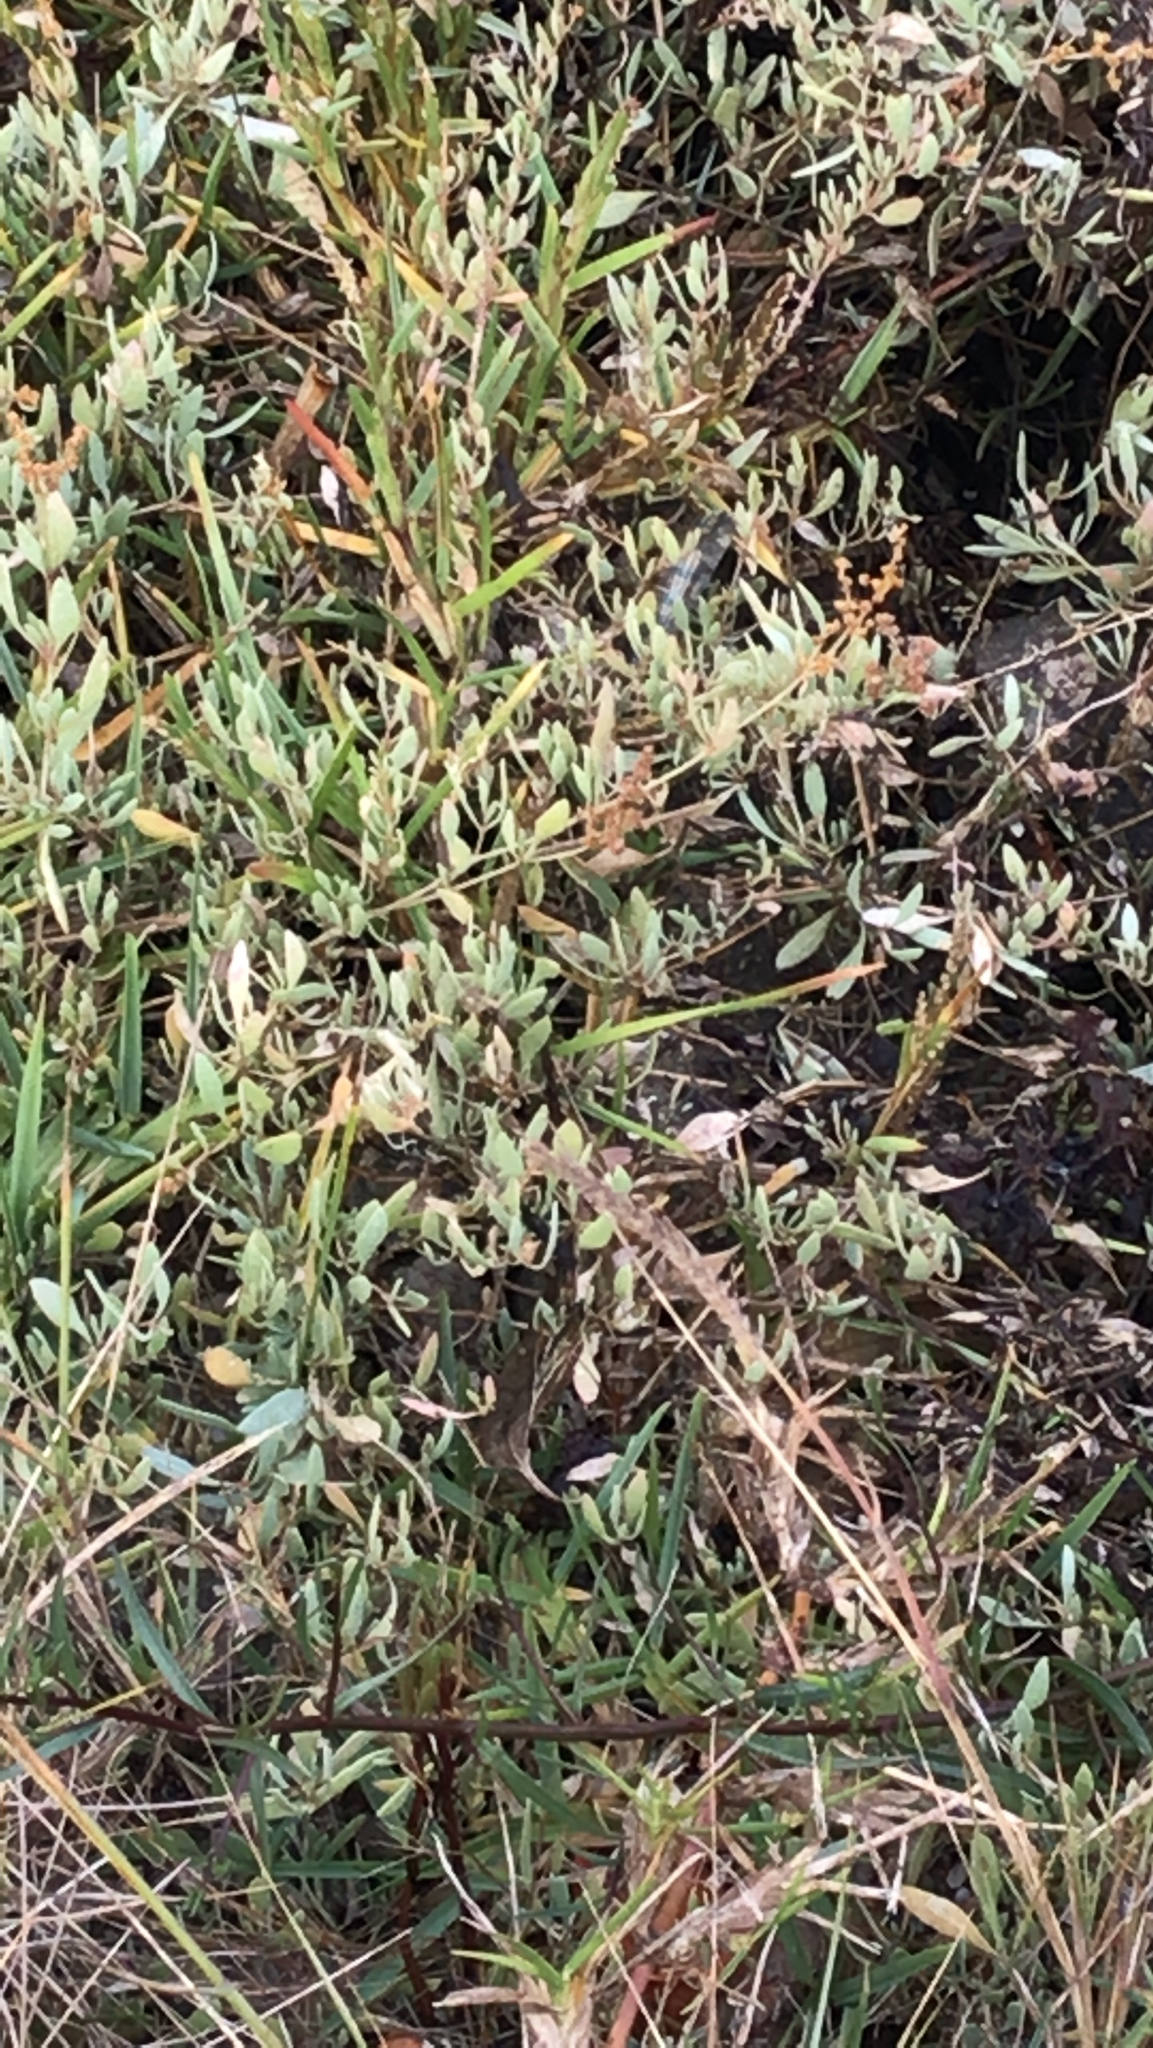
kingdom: Plantae
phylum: Tracheophyta
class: Magnoliopsida
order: Caryophyllales
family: Amaranthaceae
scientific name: Amaranthaceae
